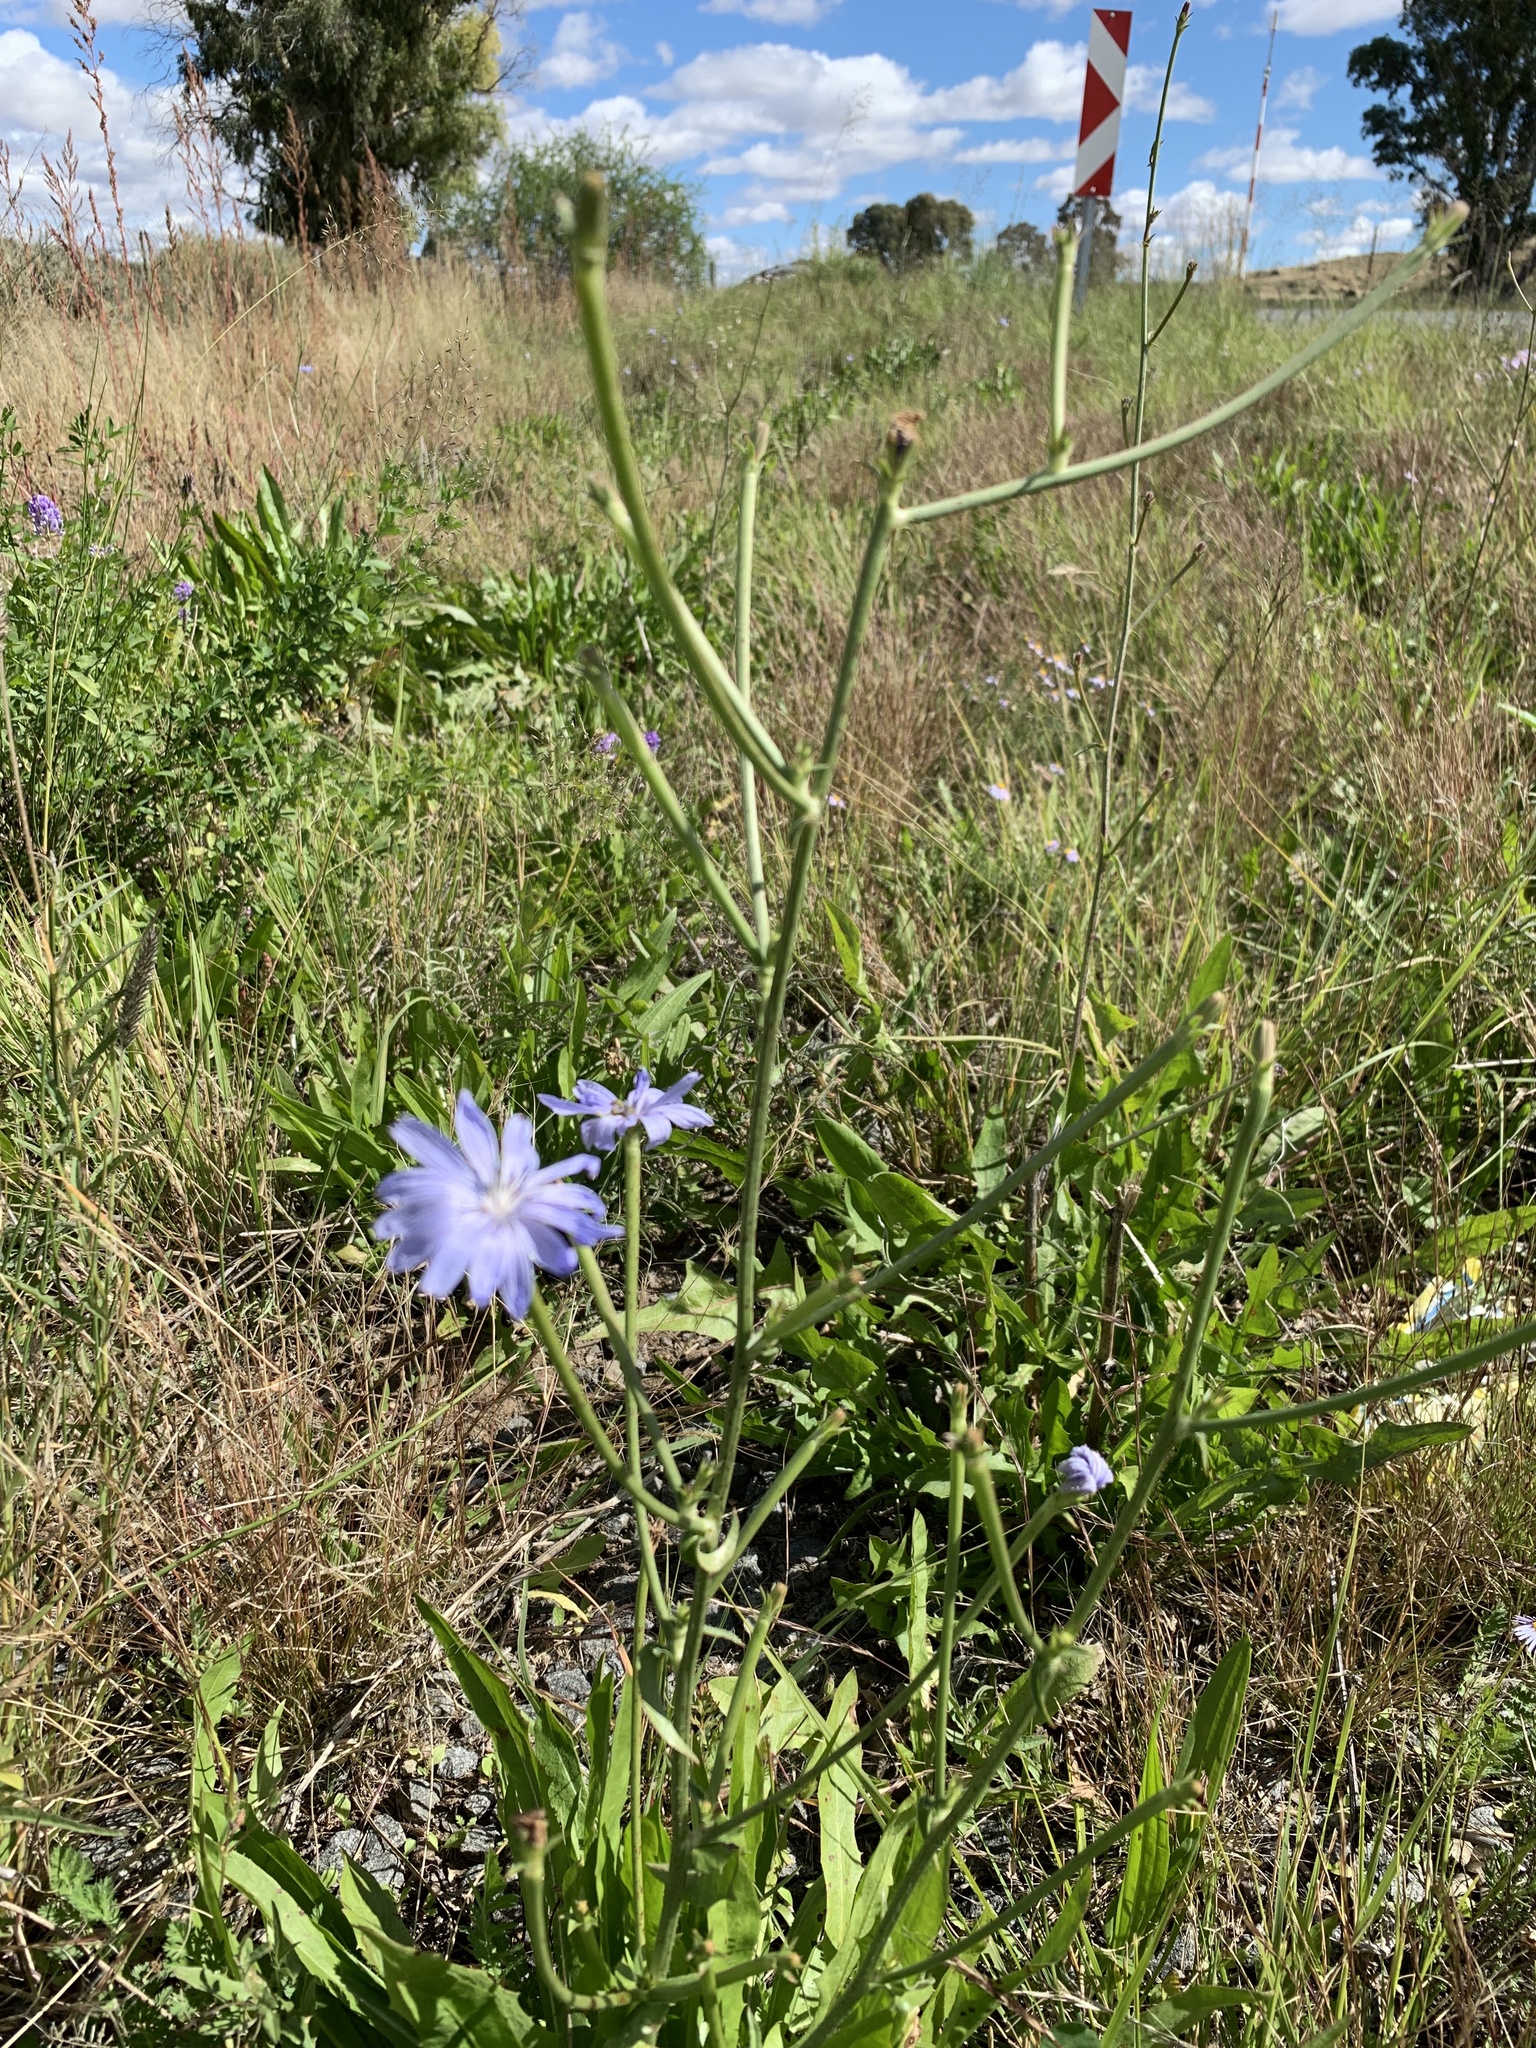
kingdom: Plantae
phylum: Tracheophyta
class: Magnoliopsida
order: Asterales
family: Asteraceae
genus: Cichorium
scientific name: Cichorium intybus
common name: Chicory
